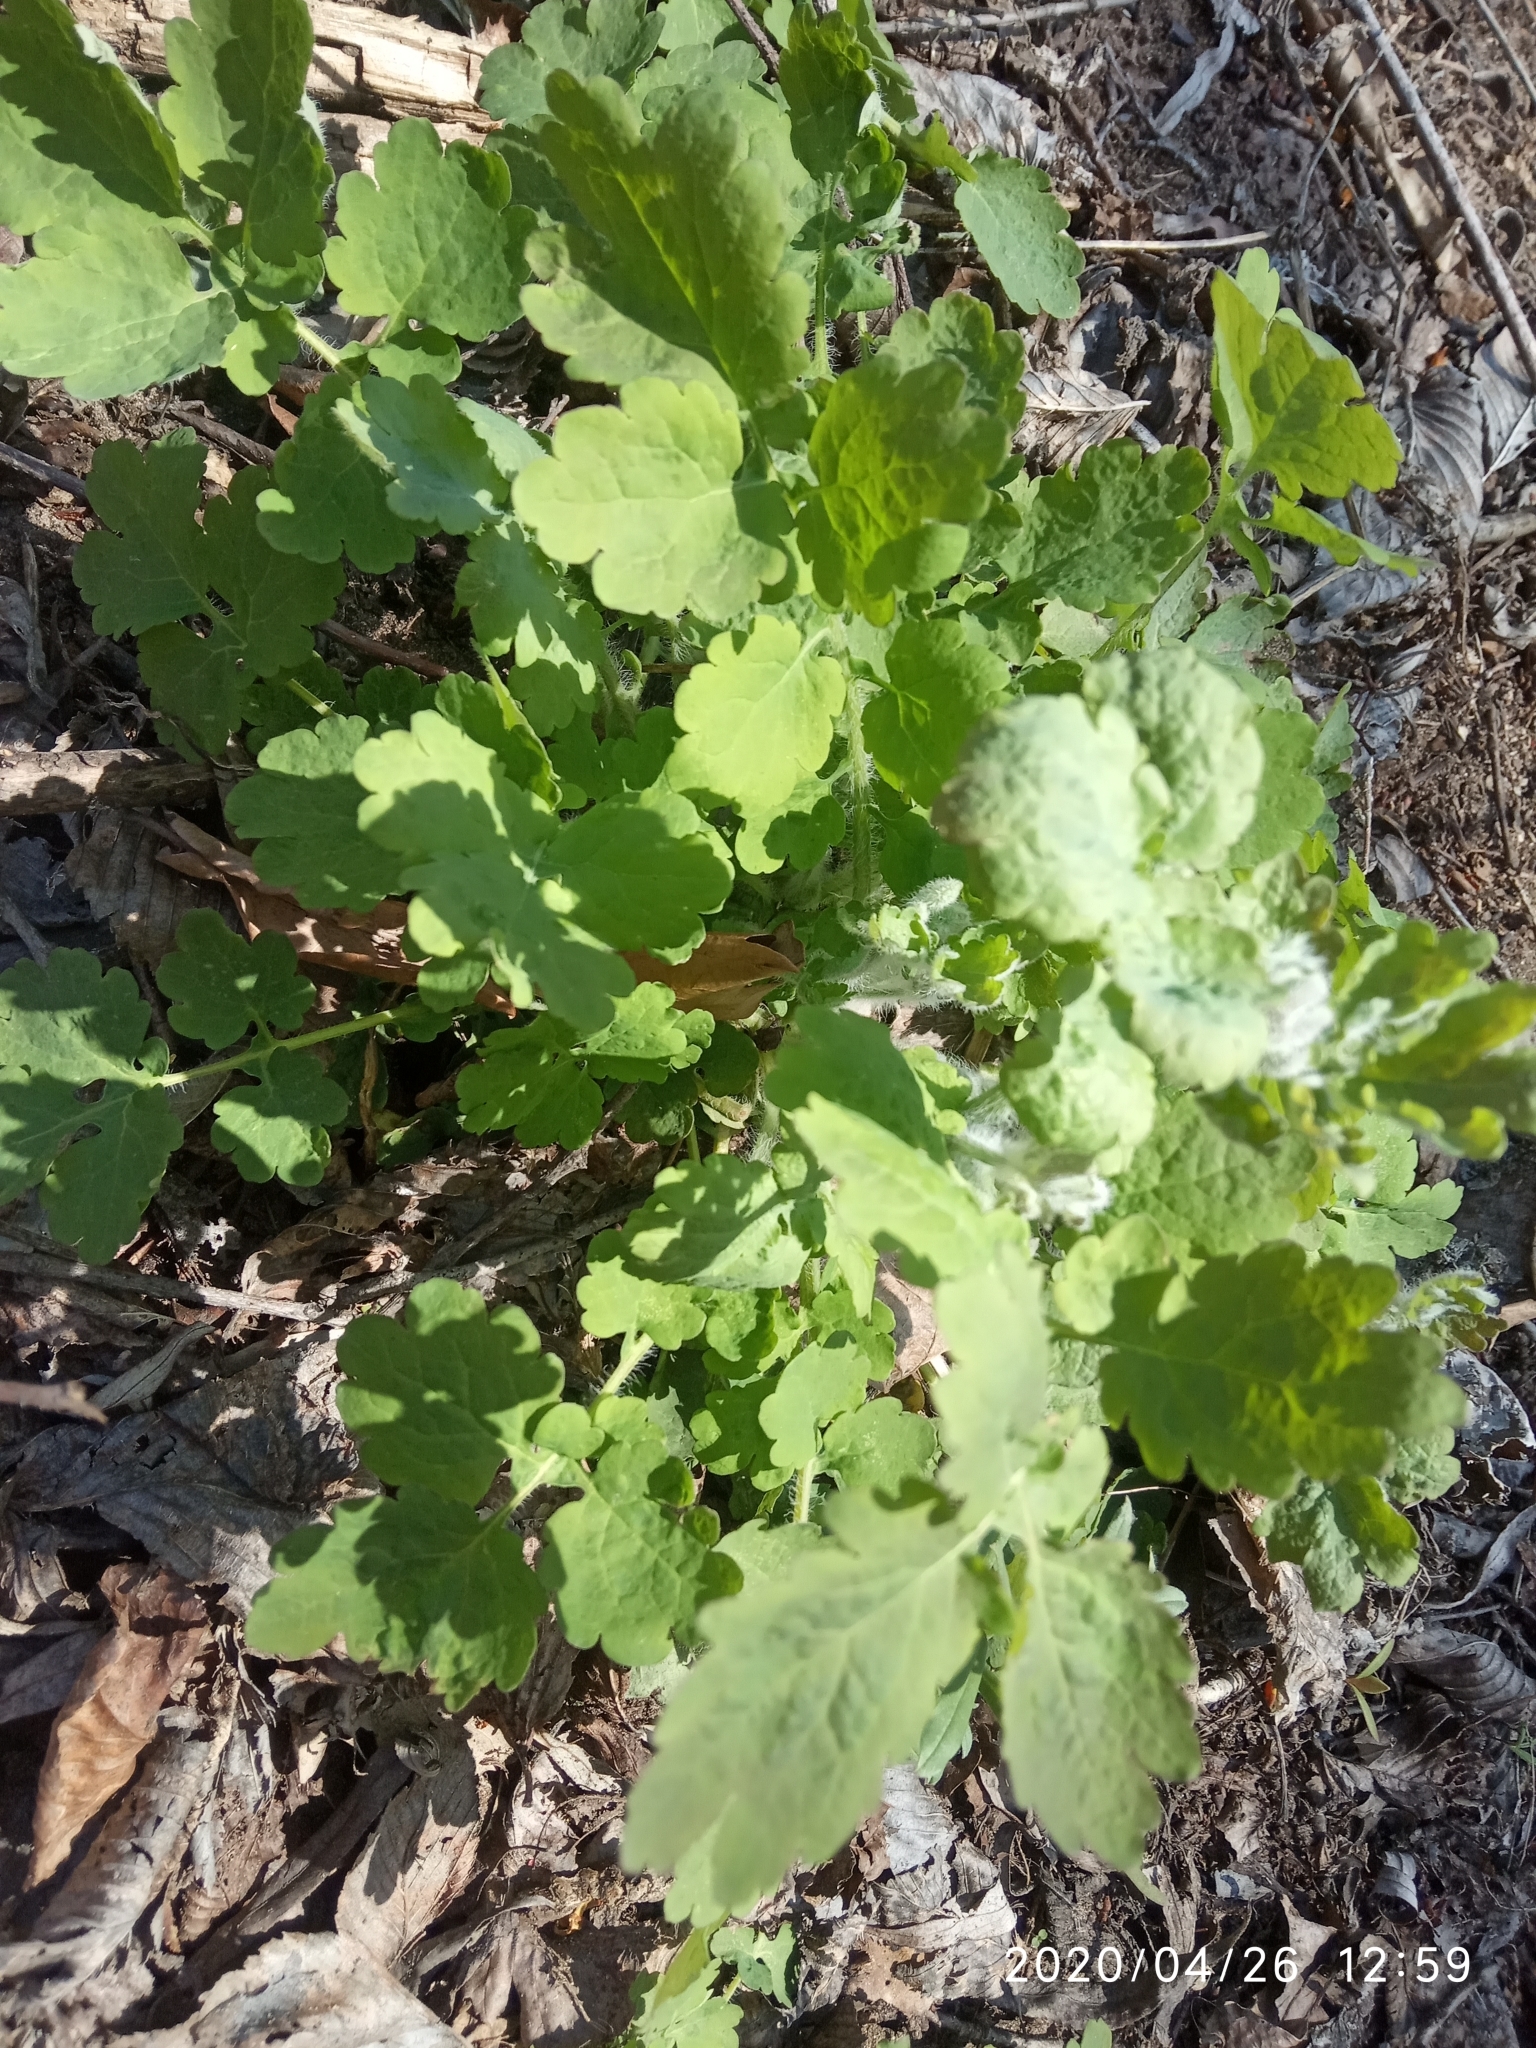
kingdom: Plantae
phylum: Tracheophyta
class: Magnoliopsida
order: Ranunculales
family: Papaveraceae
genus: Chelidonium
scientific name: Chelidonium majus
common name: Greater celandine
